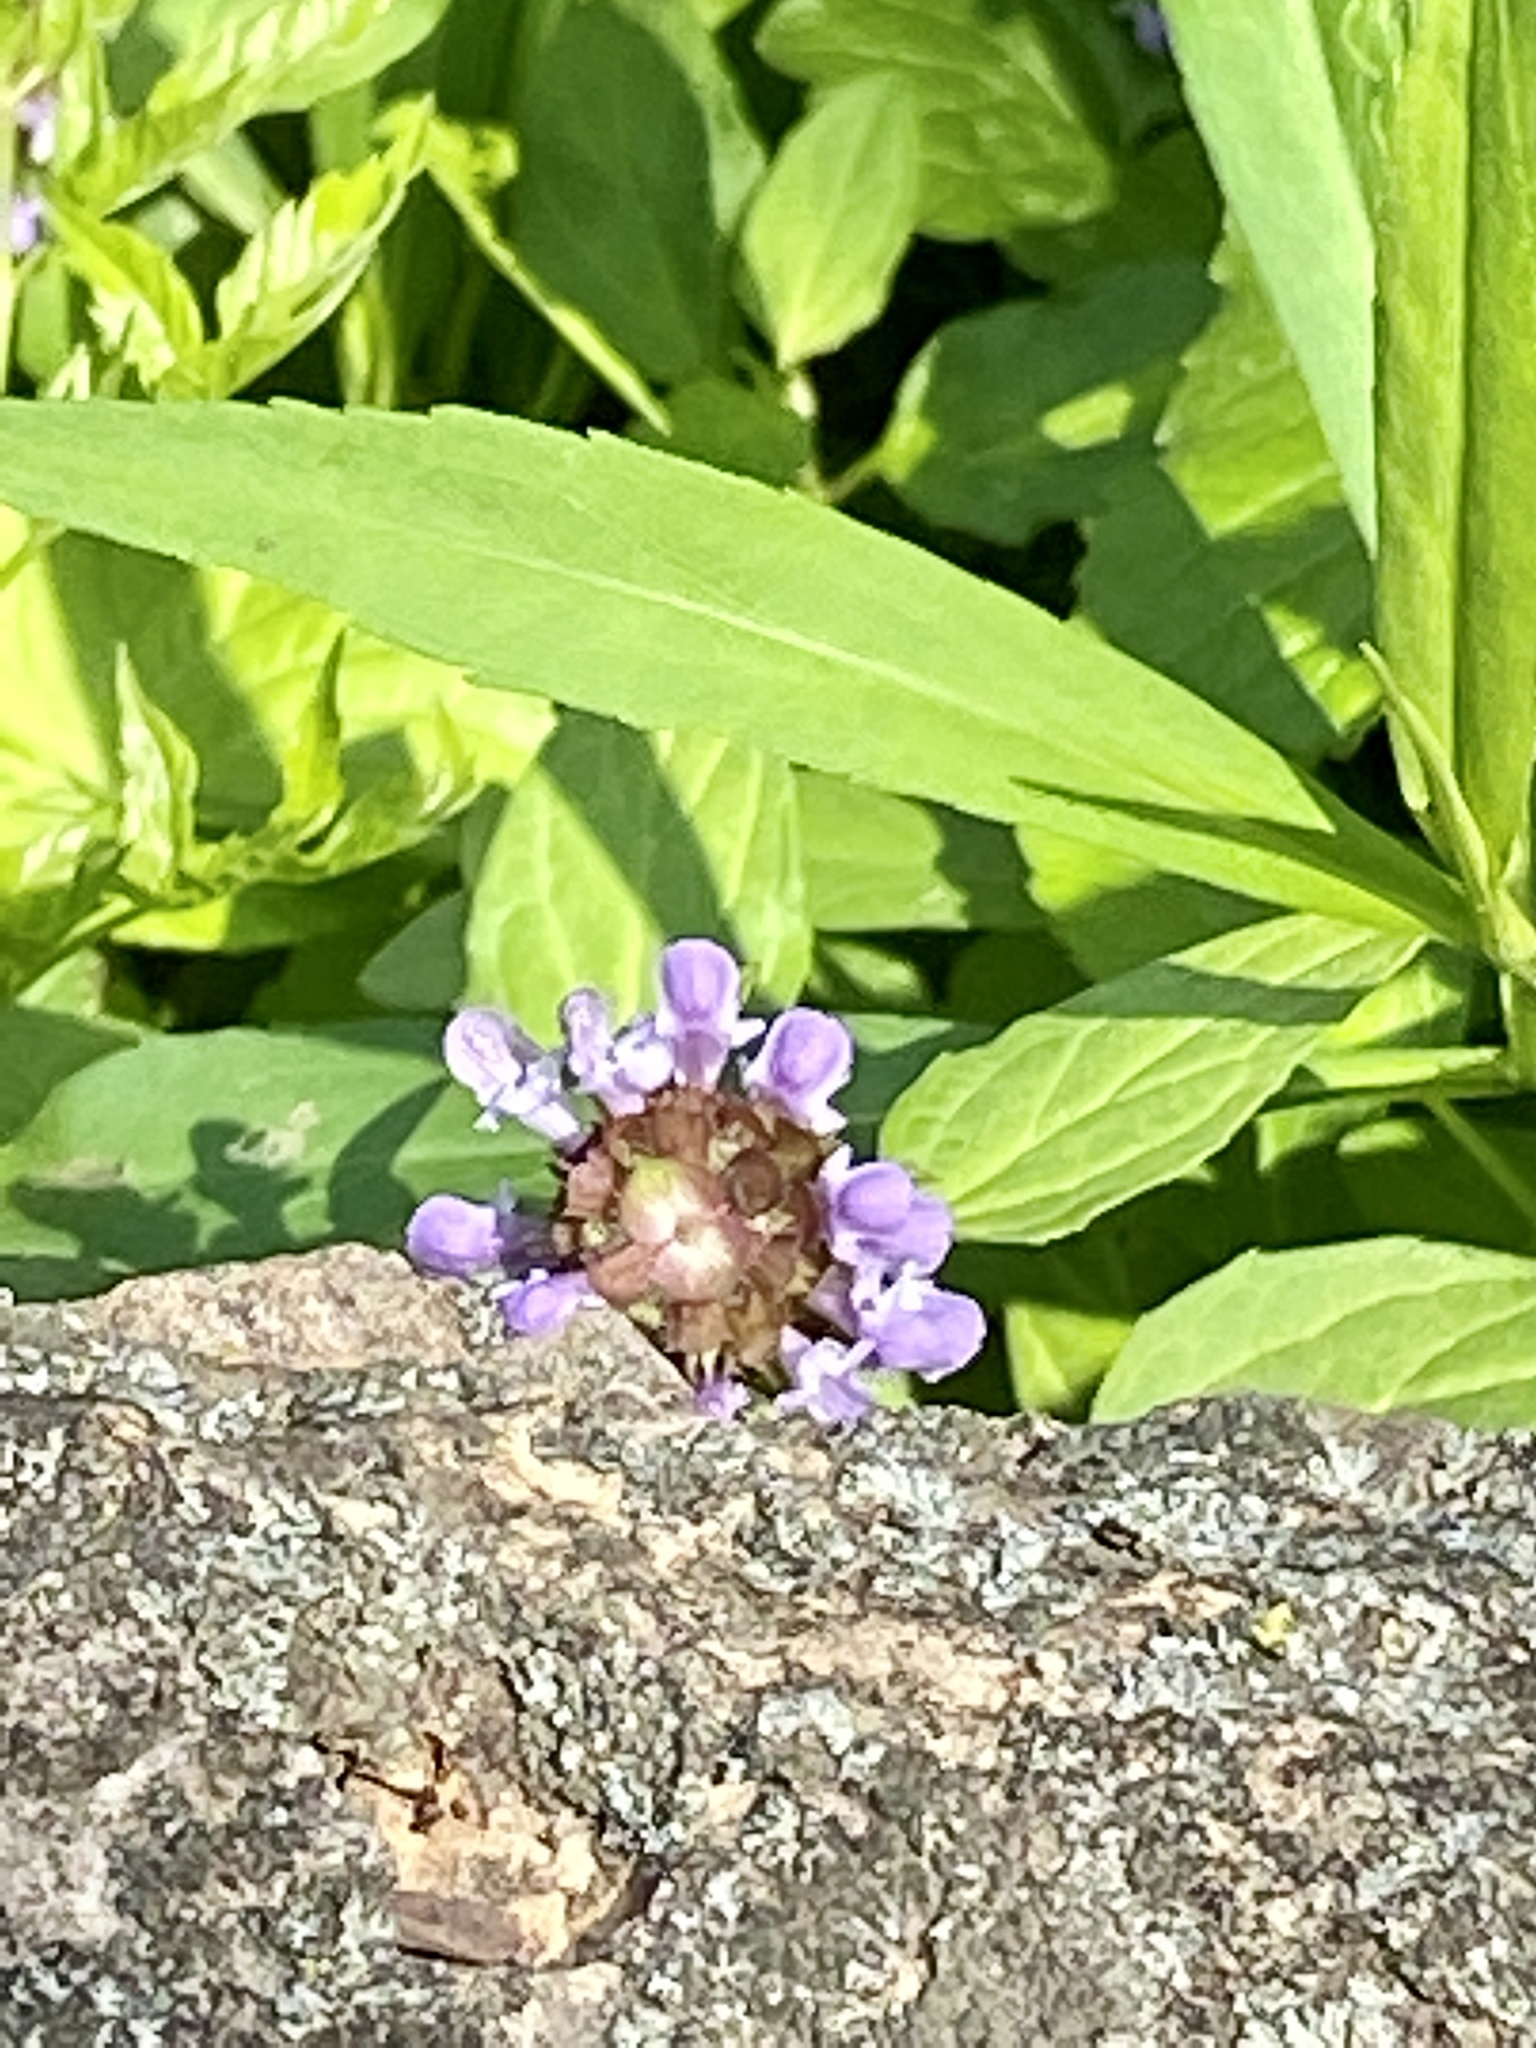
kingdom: Plantae
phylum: Tracheophyta
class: Magnoliopsida
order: Lamiales
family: Lamiaceae
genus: Prunella
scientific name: Prunella vulgaris
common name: Heal-all
